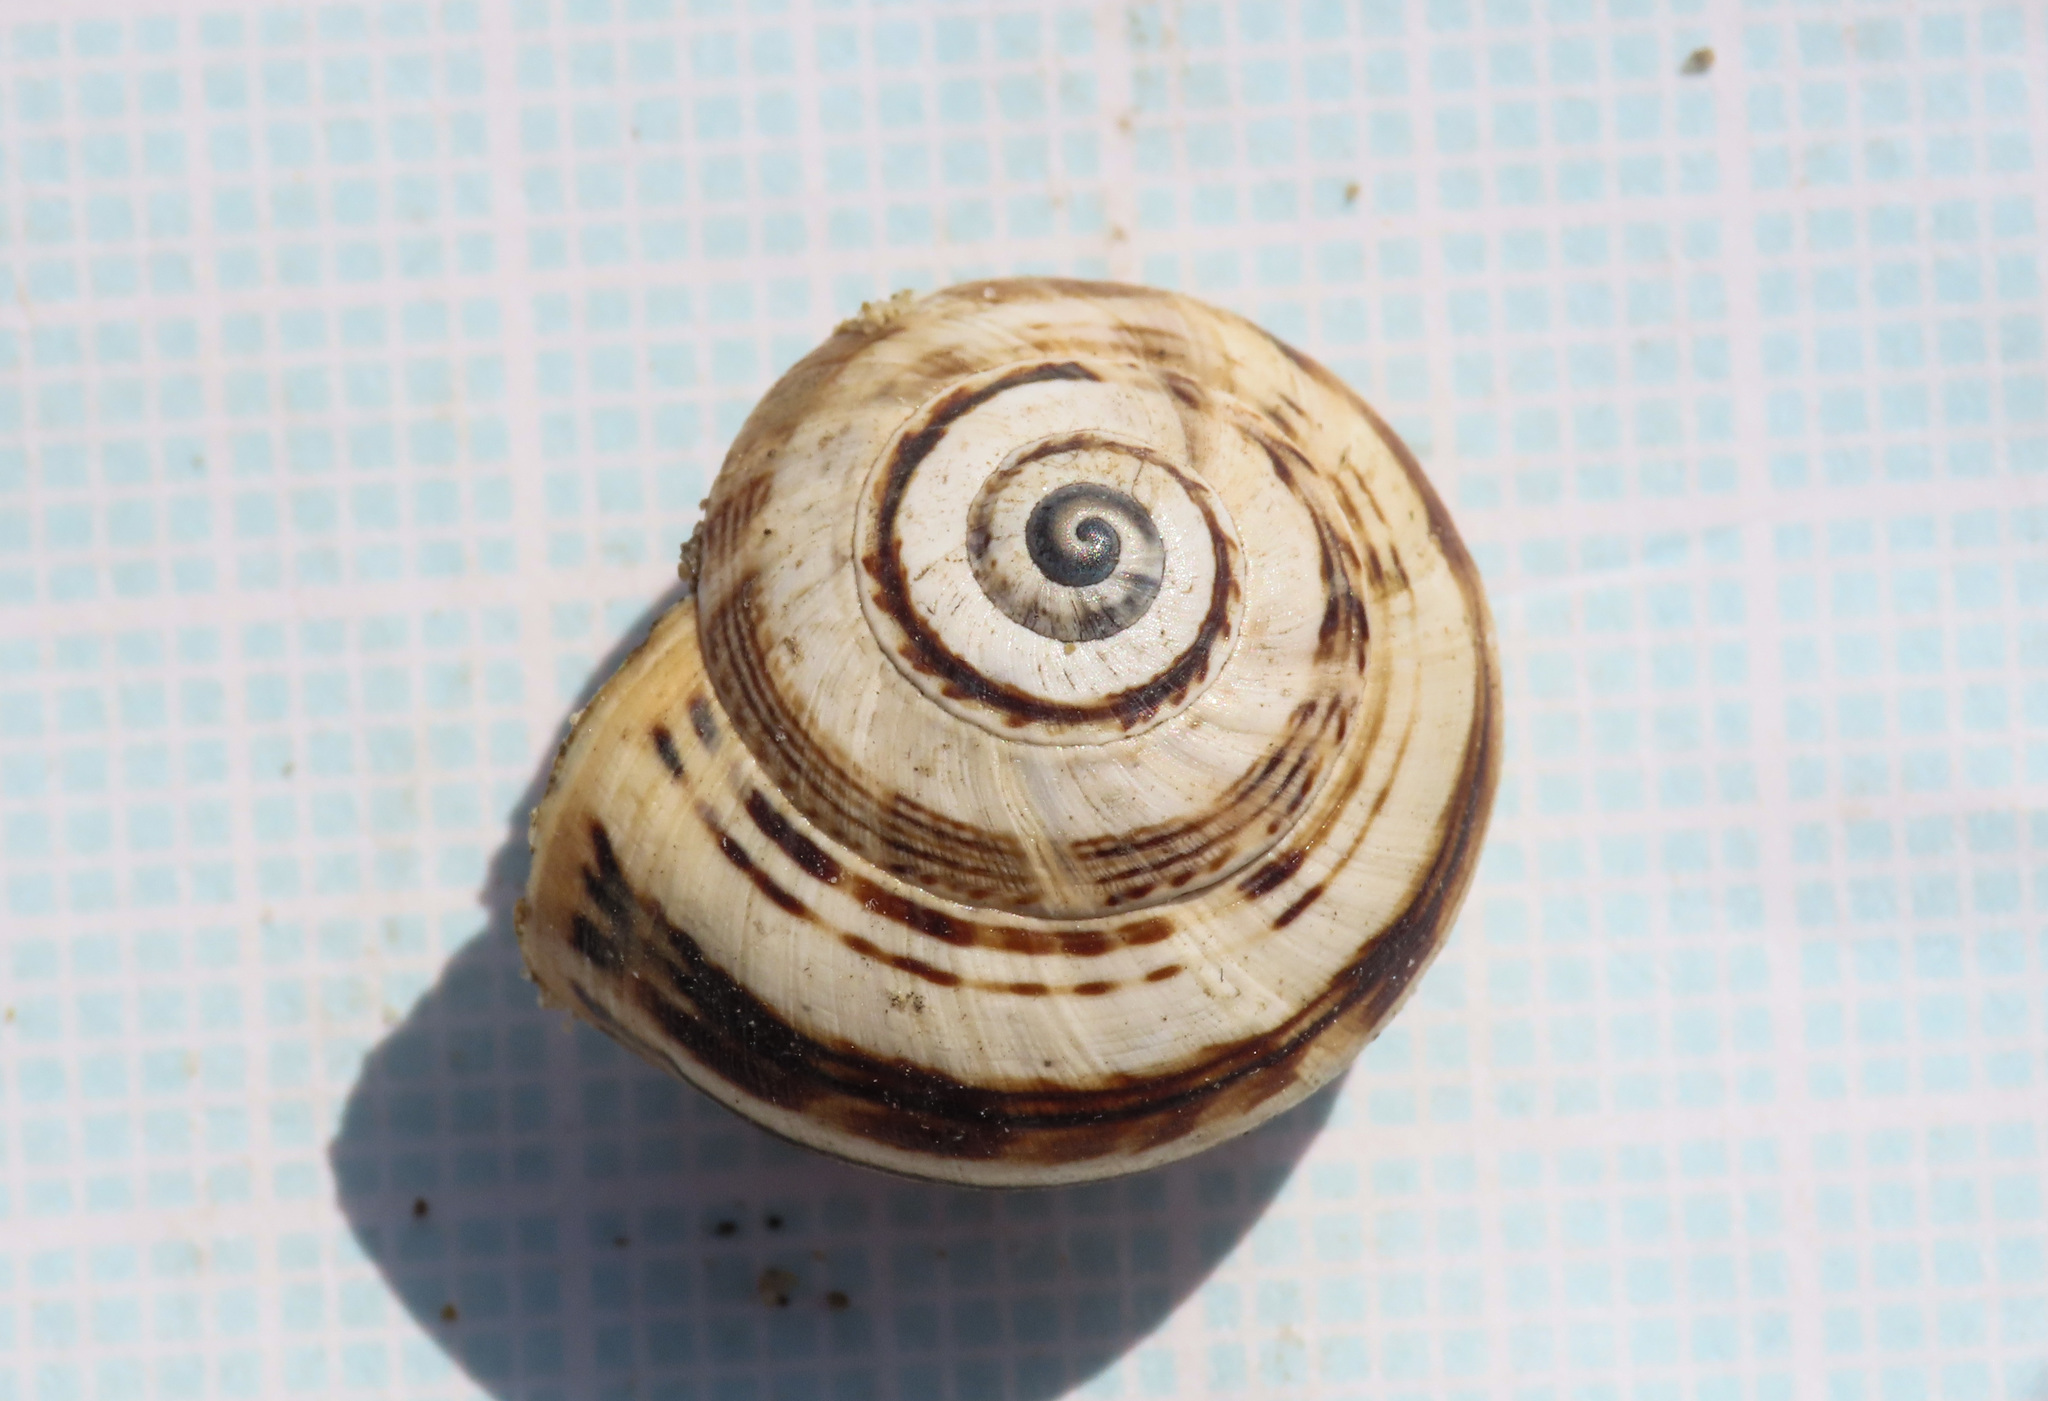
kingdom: Animalia
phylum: Mollusca
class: Gastropoda
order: Stylommatophora
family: Helicidae
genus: Theba
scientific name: Theba pisana
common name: White snail
